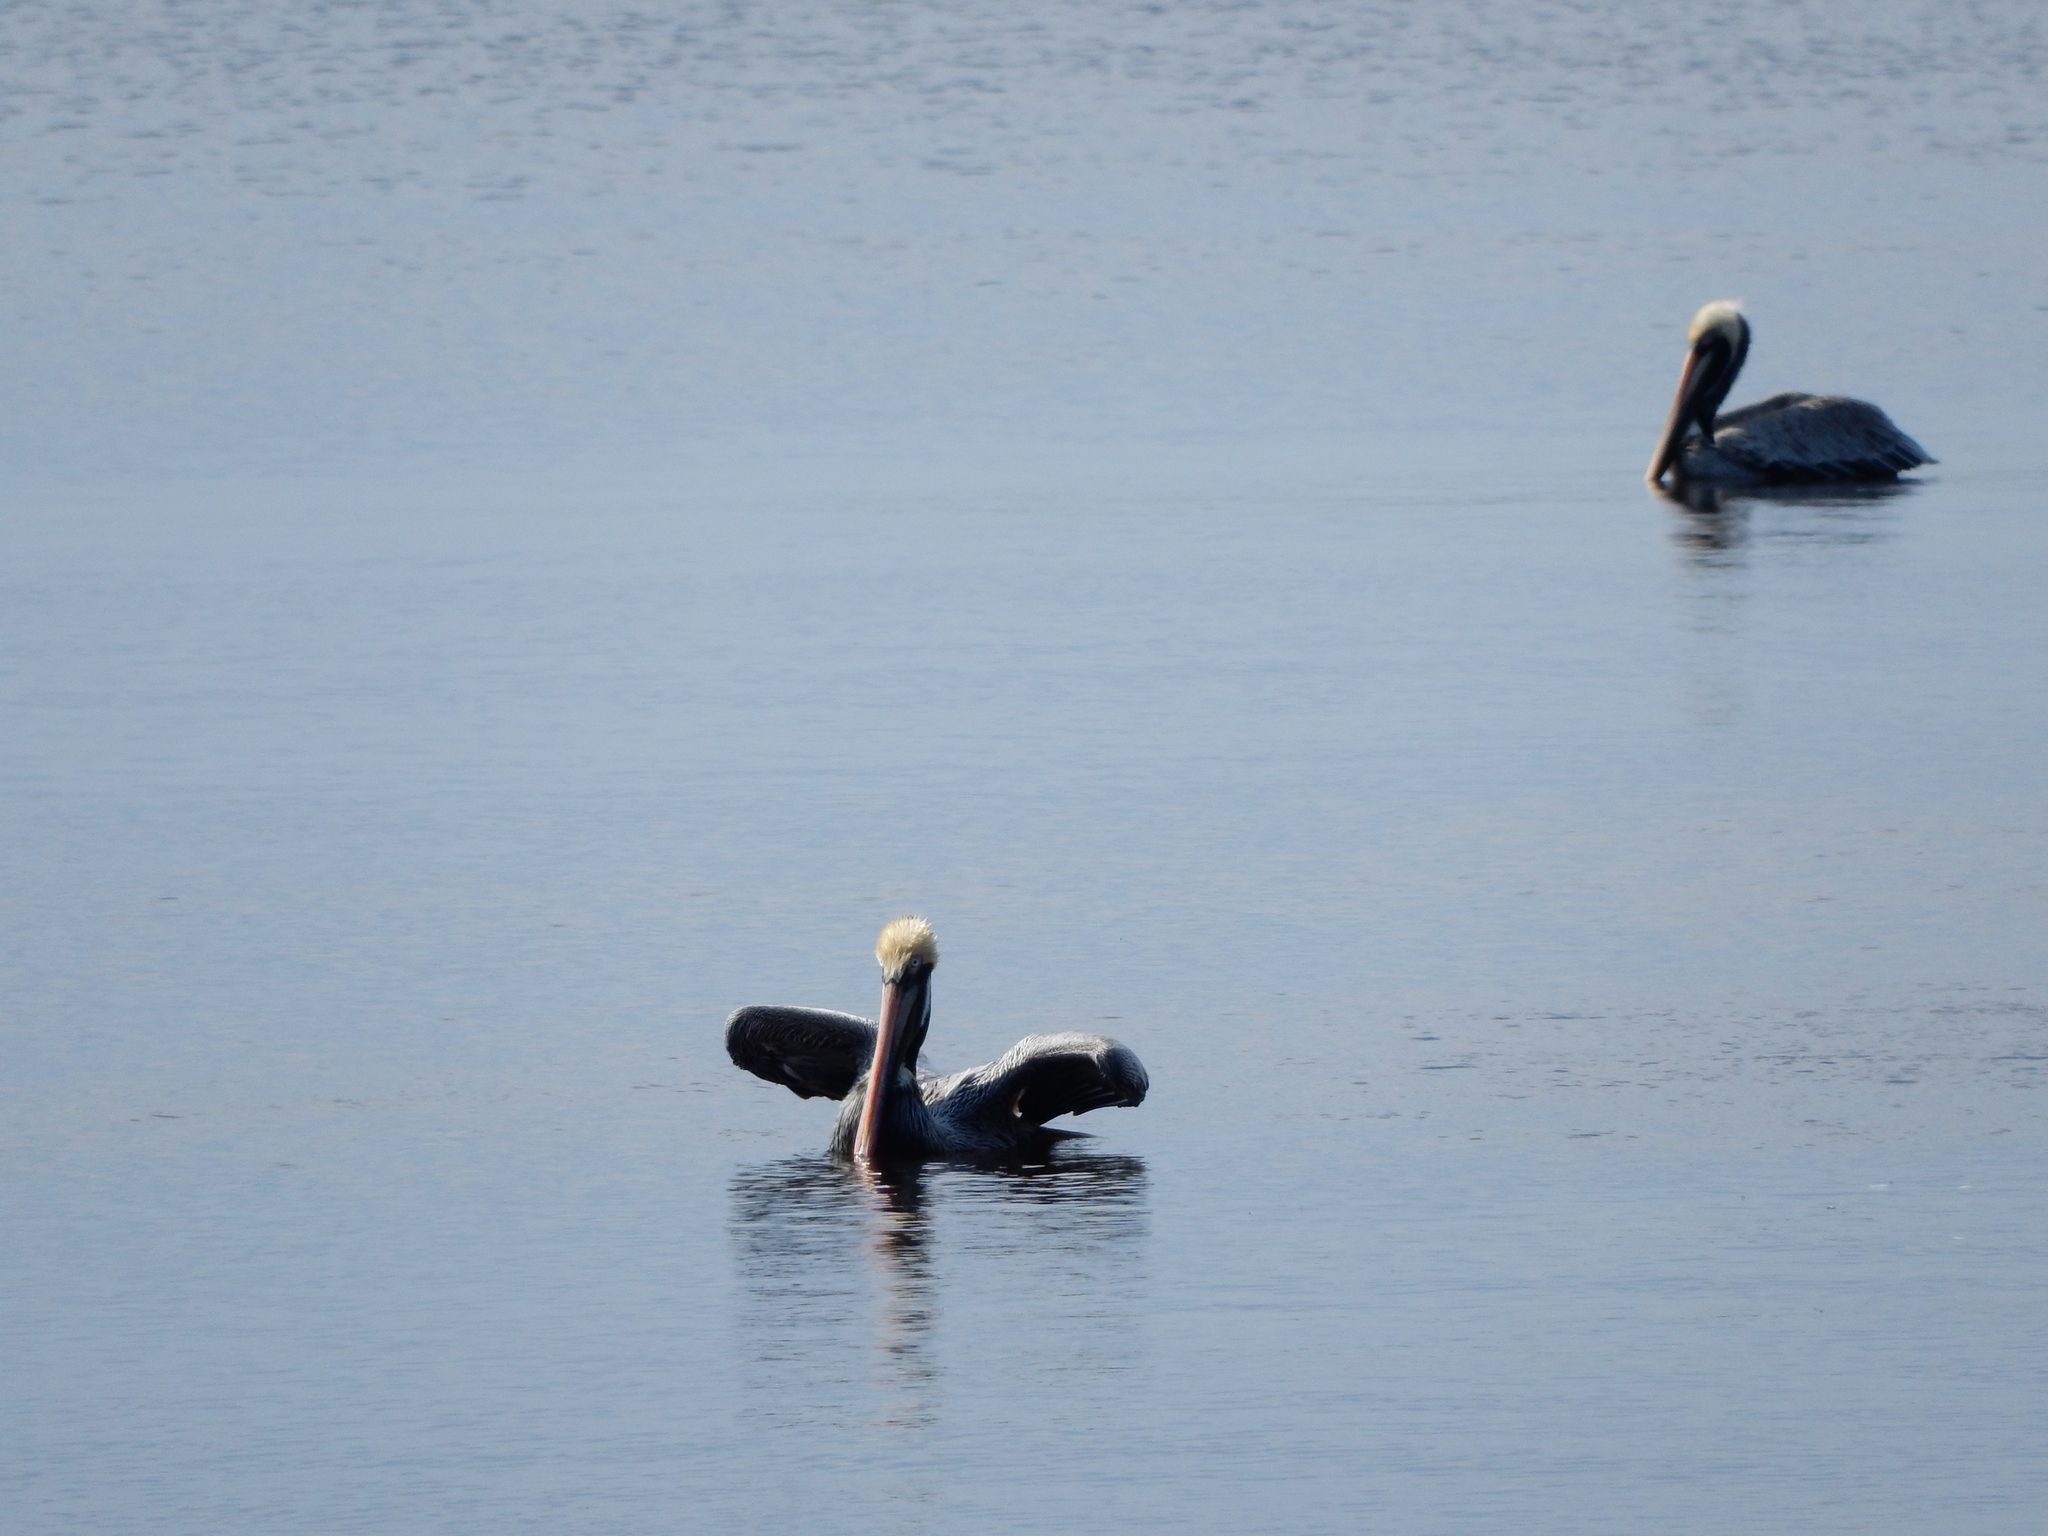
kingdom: Animalia
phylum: Chordata
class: Aves
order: Pelecaniformes
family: Pelecanidae
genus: Pelecanus
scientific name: Pelecanus occidentalis
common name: Brown pelican
